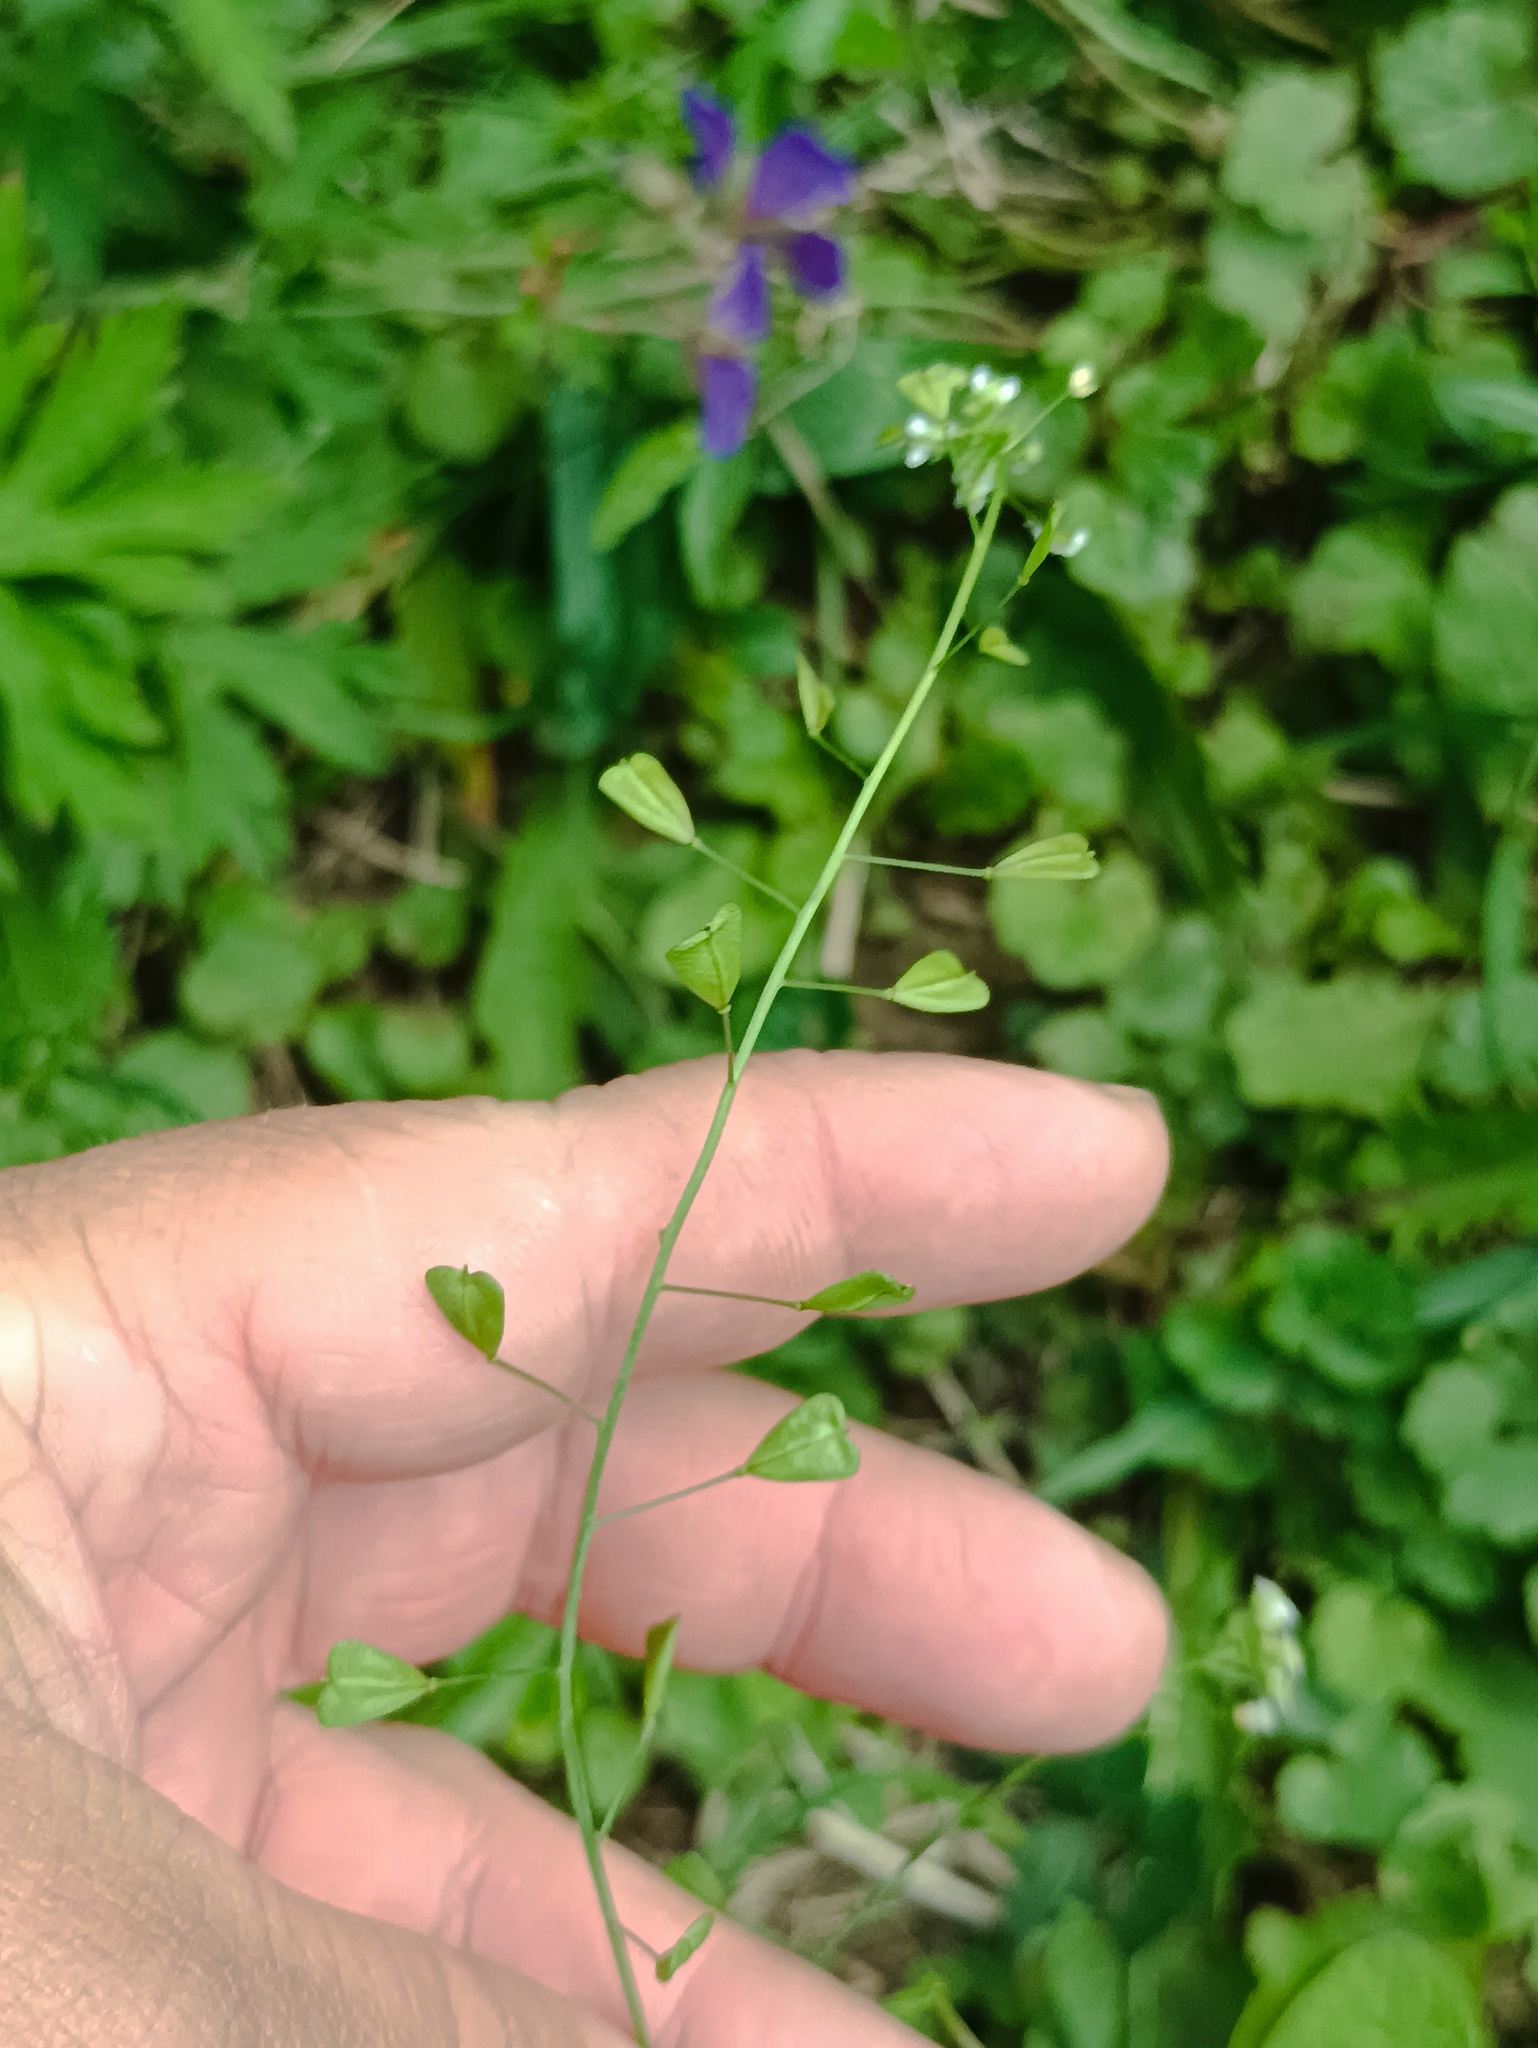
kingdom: Plantae
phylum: Tracheophyta
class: Magnoliopsida
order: Brassicales
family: Brassicaceae
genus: Capsella
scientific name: Capsella bursa-pastoris
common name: Shepherd's purse
